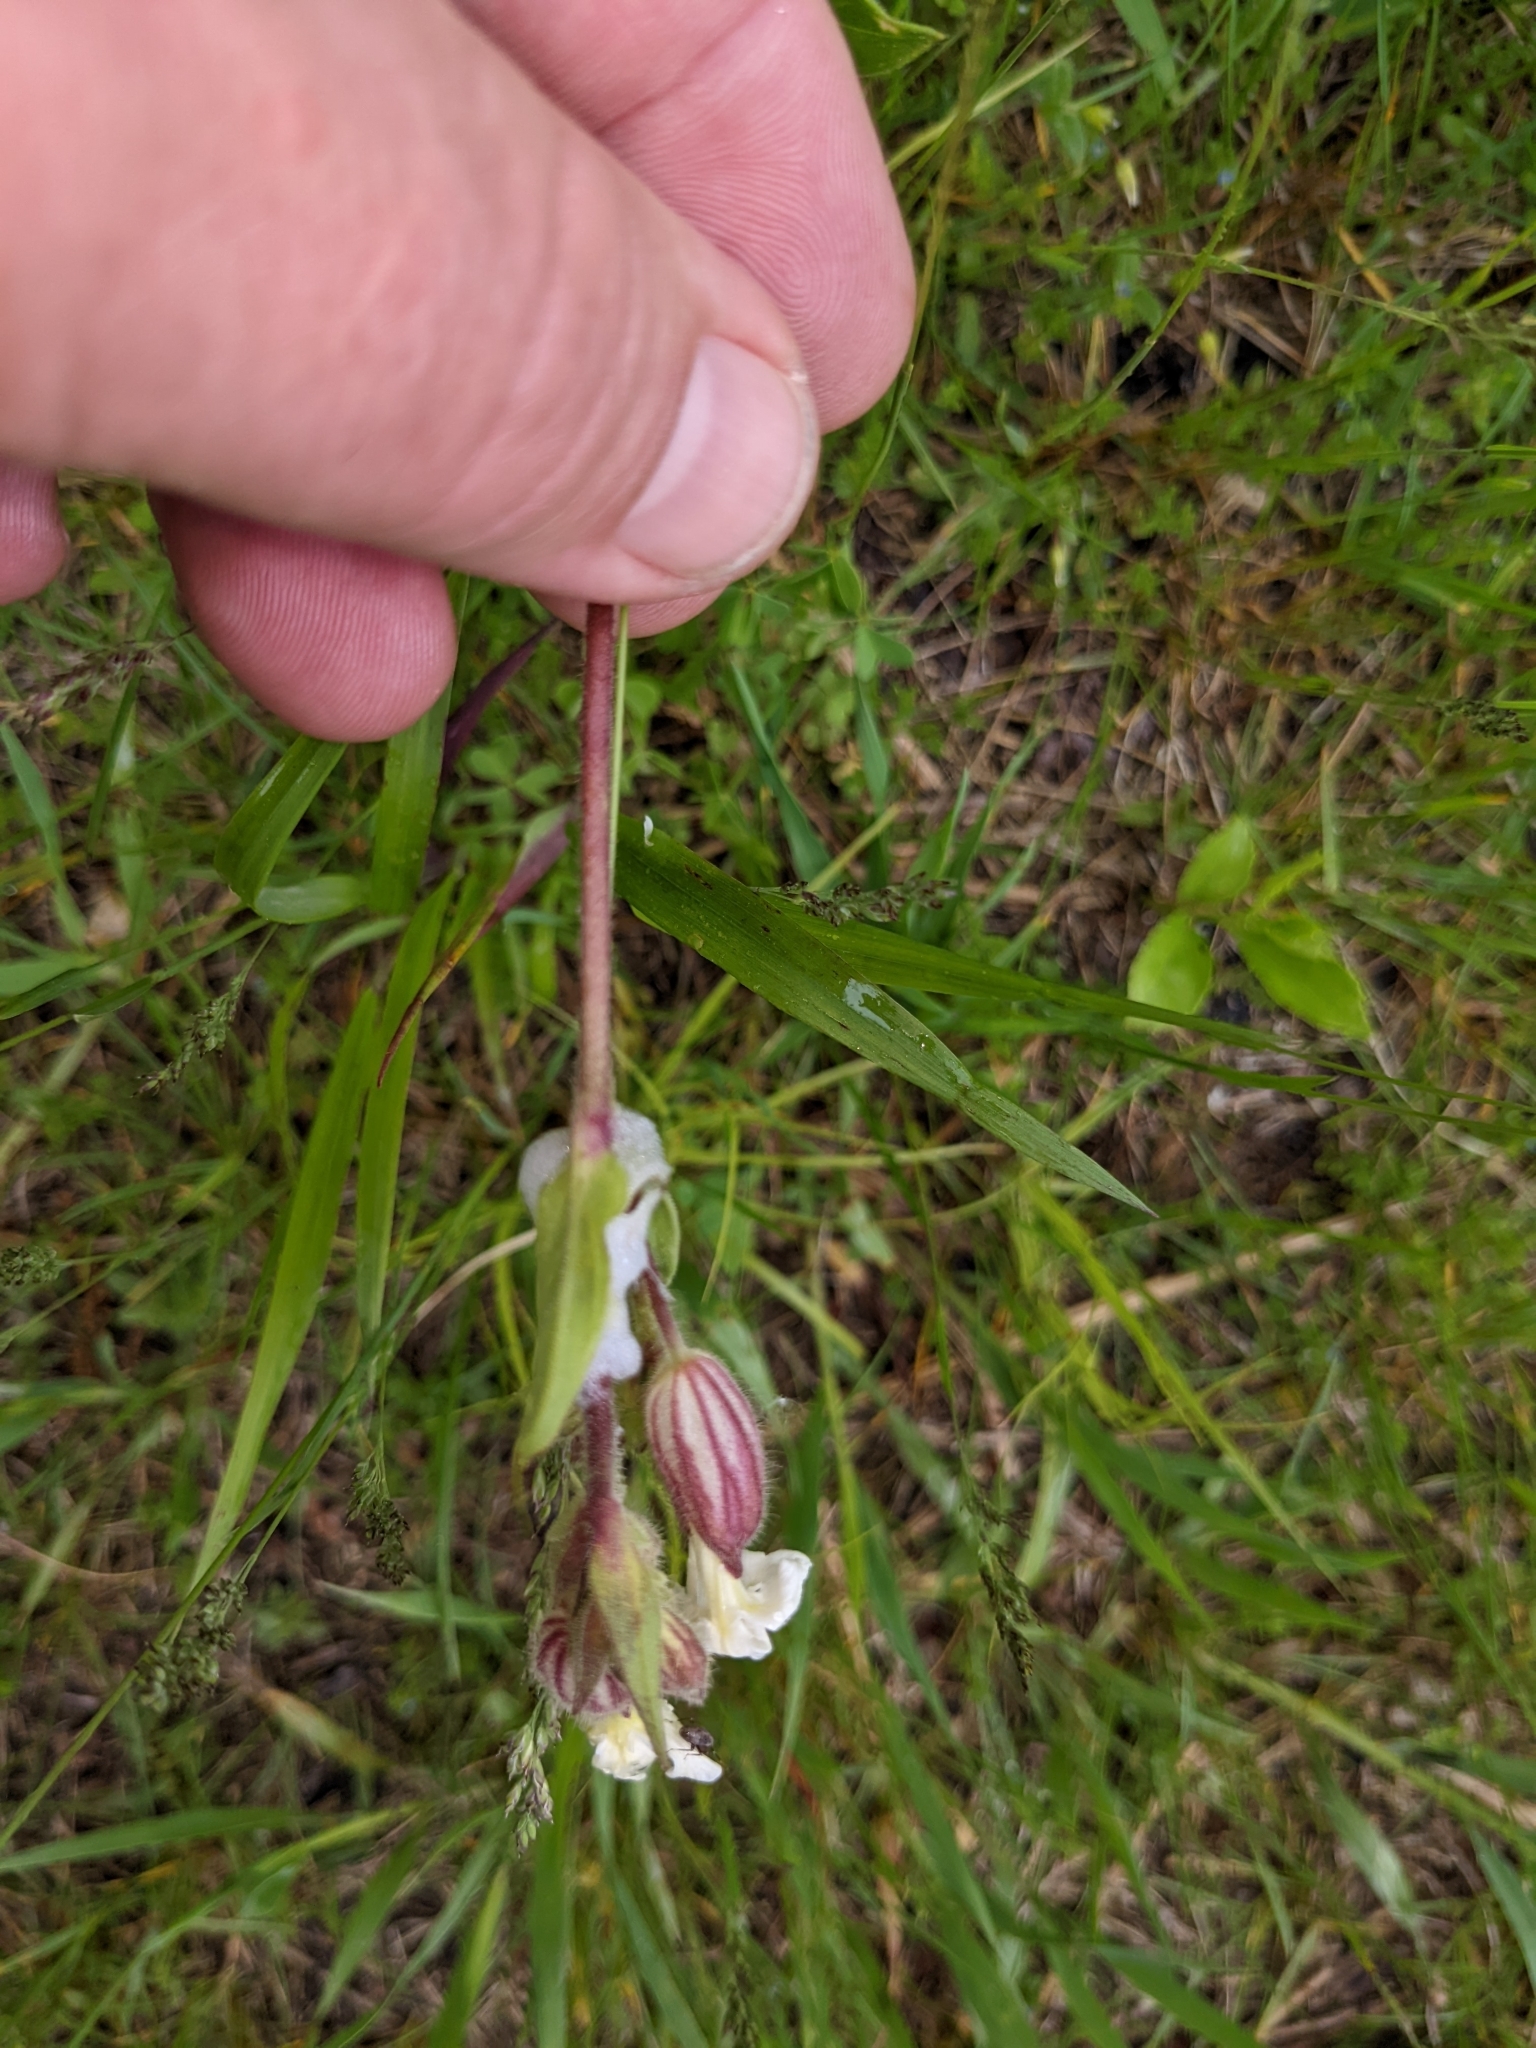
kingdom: Plantae
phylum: Tracheophyta
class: Magnoliopsida
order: Caryophyllales
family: Caryophyllaceae
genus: Silene
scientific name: Silene latifolia
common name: White campion
